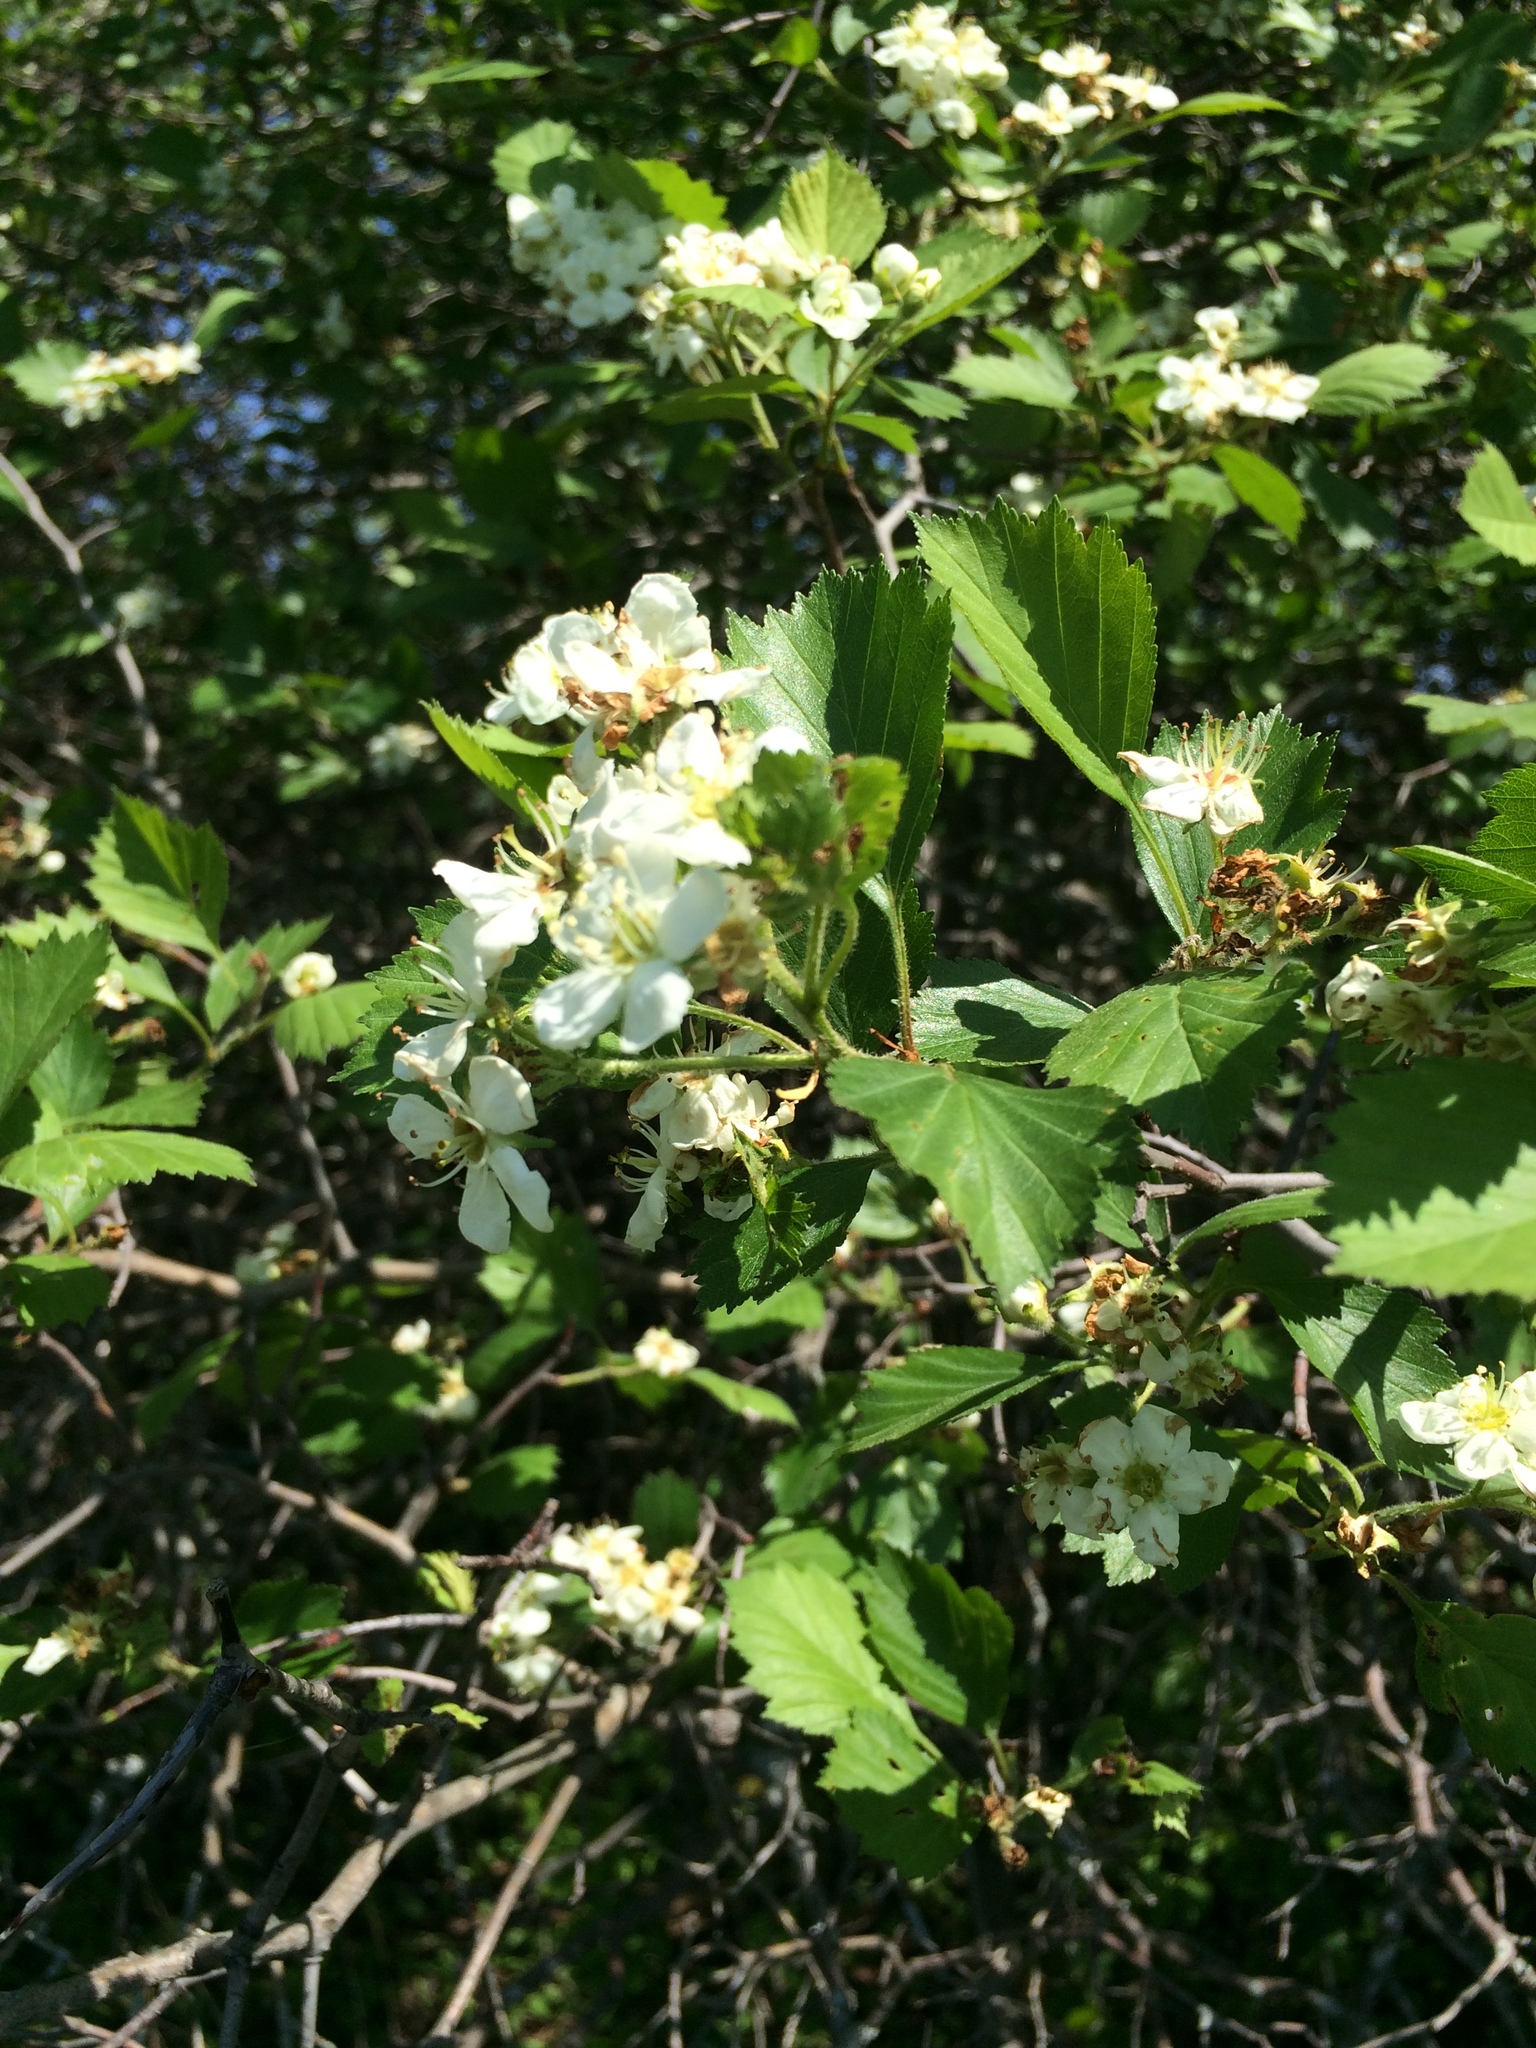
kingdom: Plantae
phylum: Tracheophyta
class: Magnoliopsida
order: Rosales
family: Rosaceae
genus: Crataegus
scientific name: Crataegus chrysocarpa
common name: Fire-berry hawthorn
